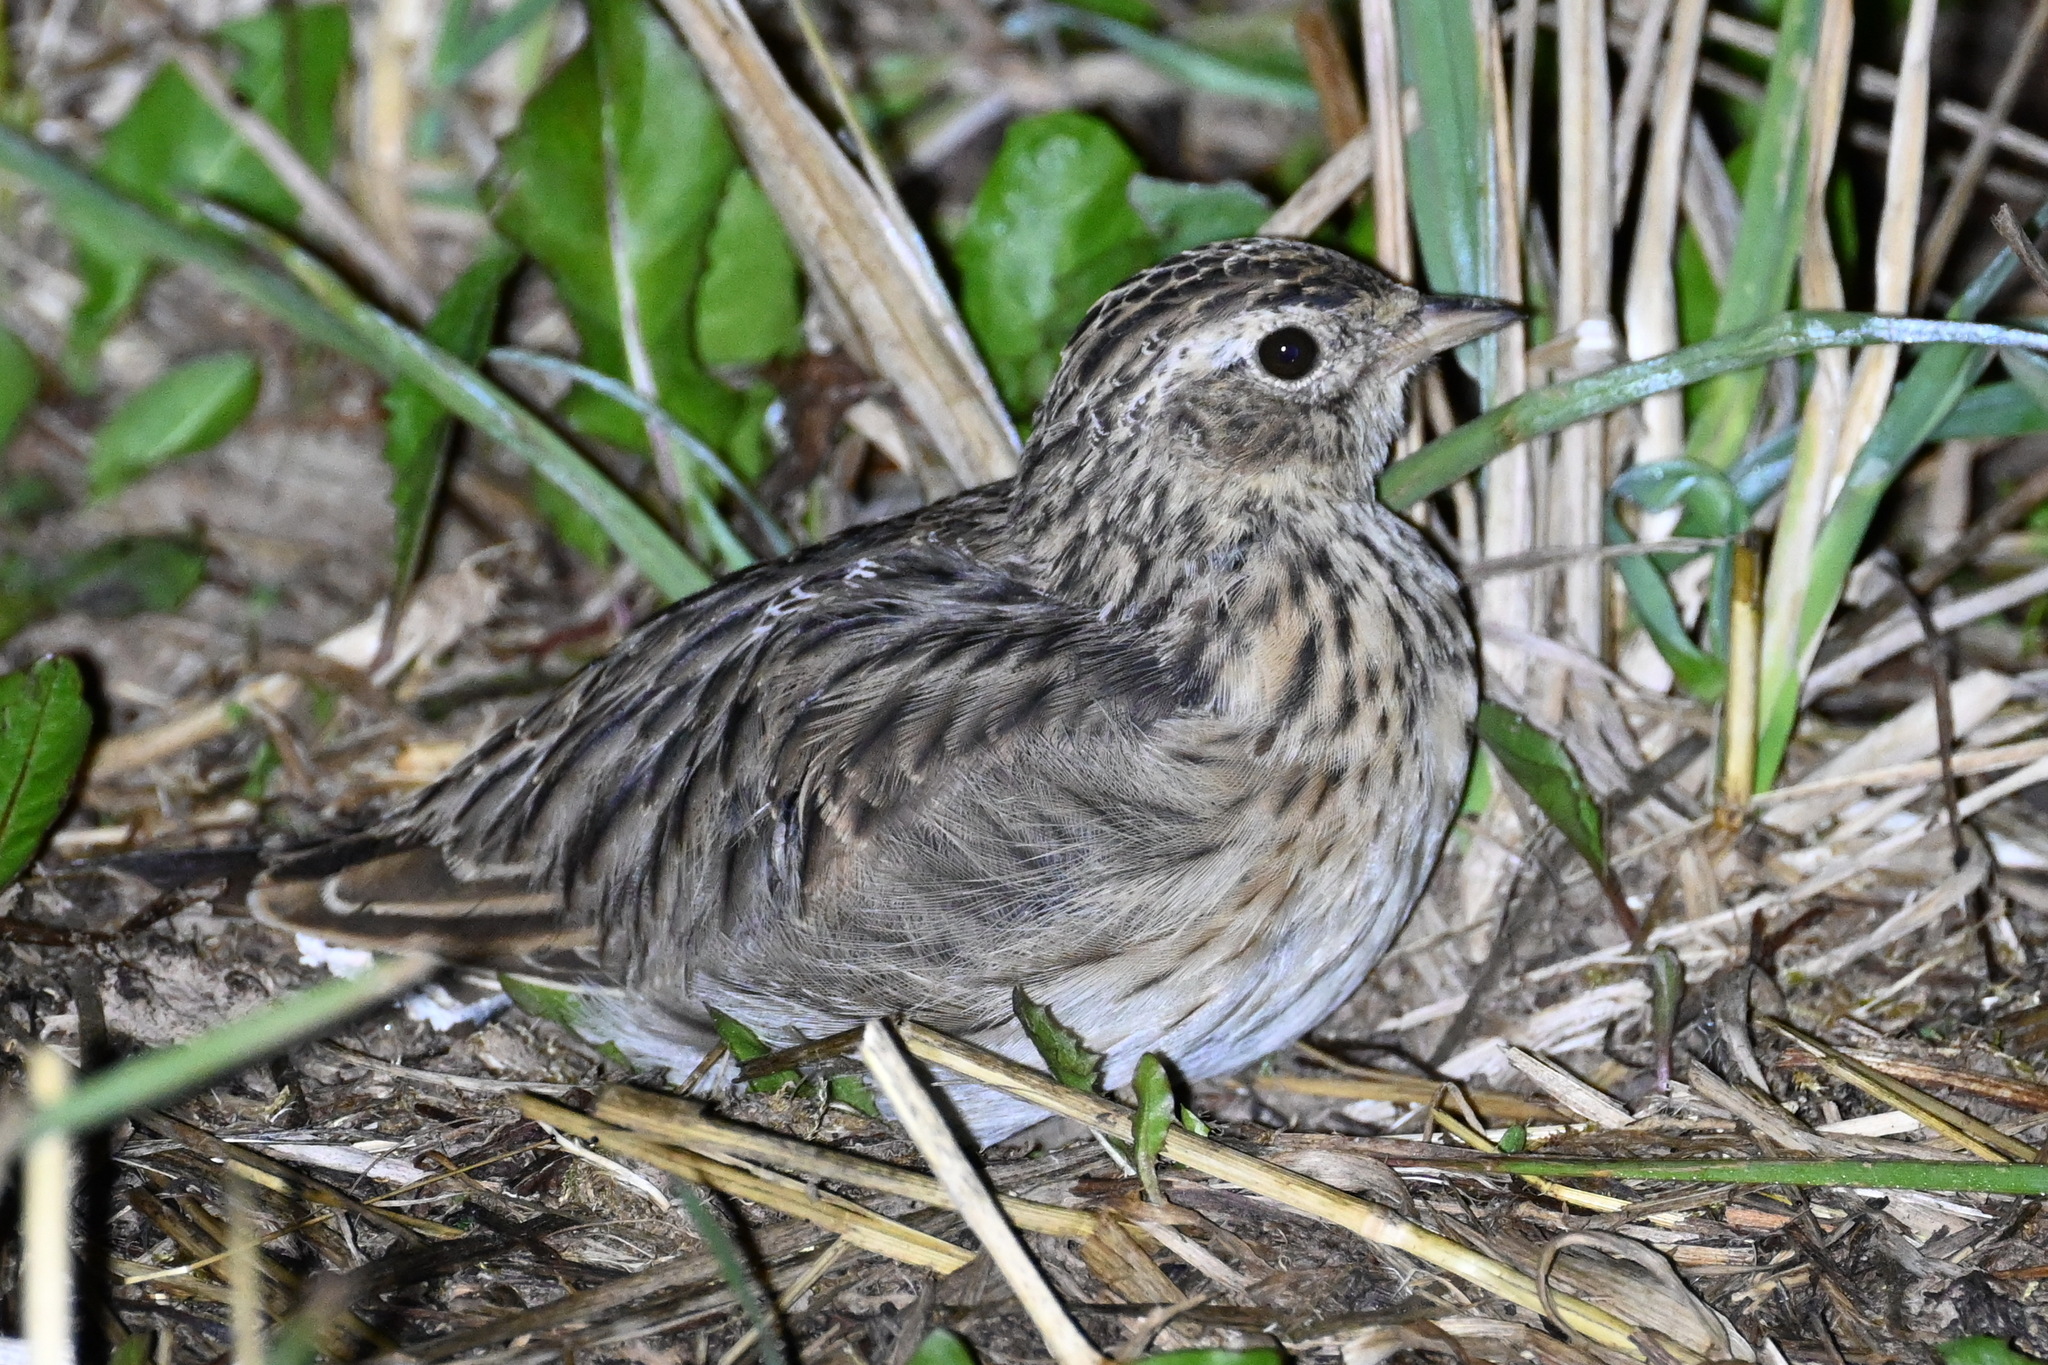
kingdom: Animalia
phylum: Chordata
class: Aves
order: Passeriformes
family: Alaudidae
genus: Alauda
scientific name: Alauda arvensis
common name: Eurasian skylark
